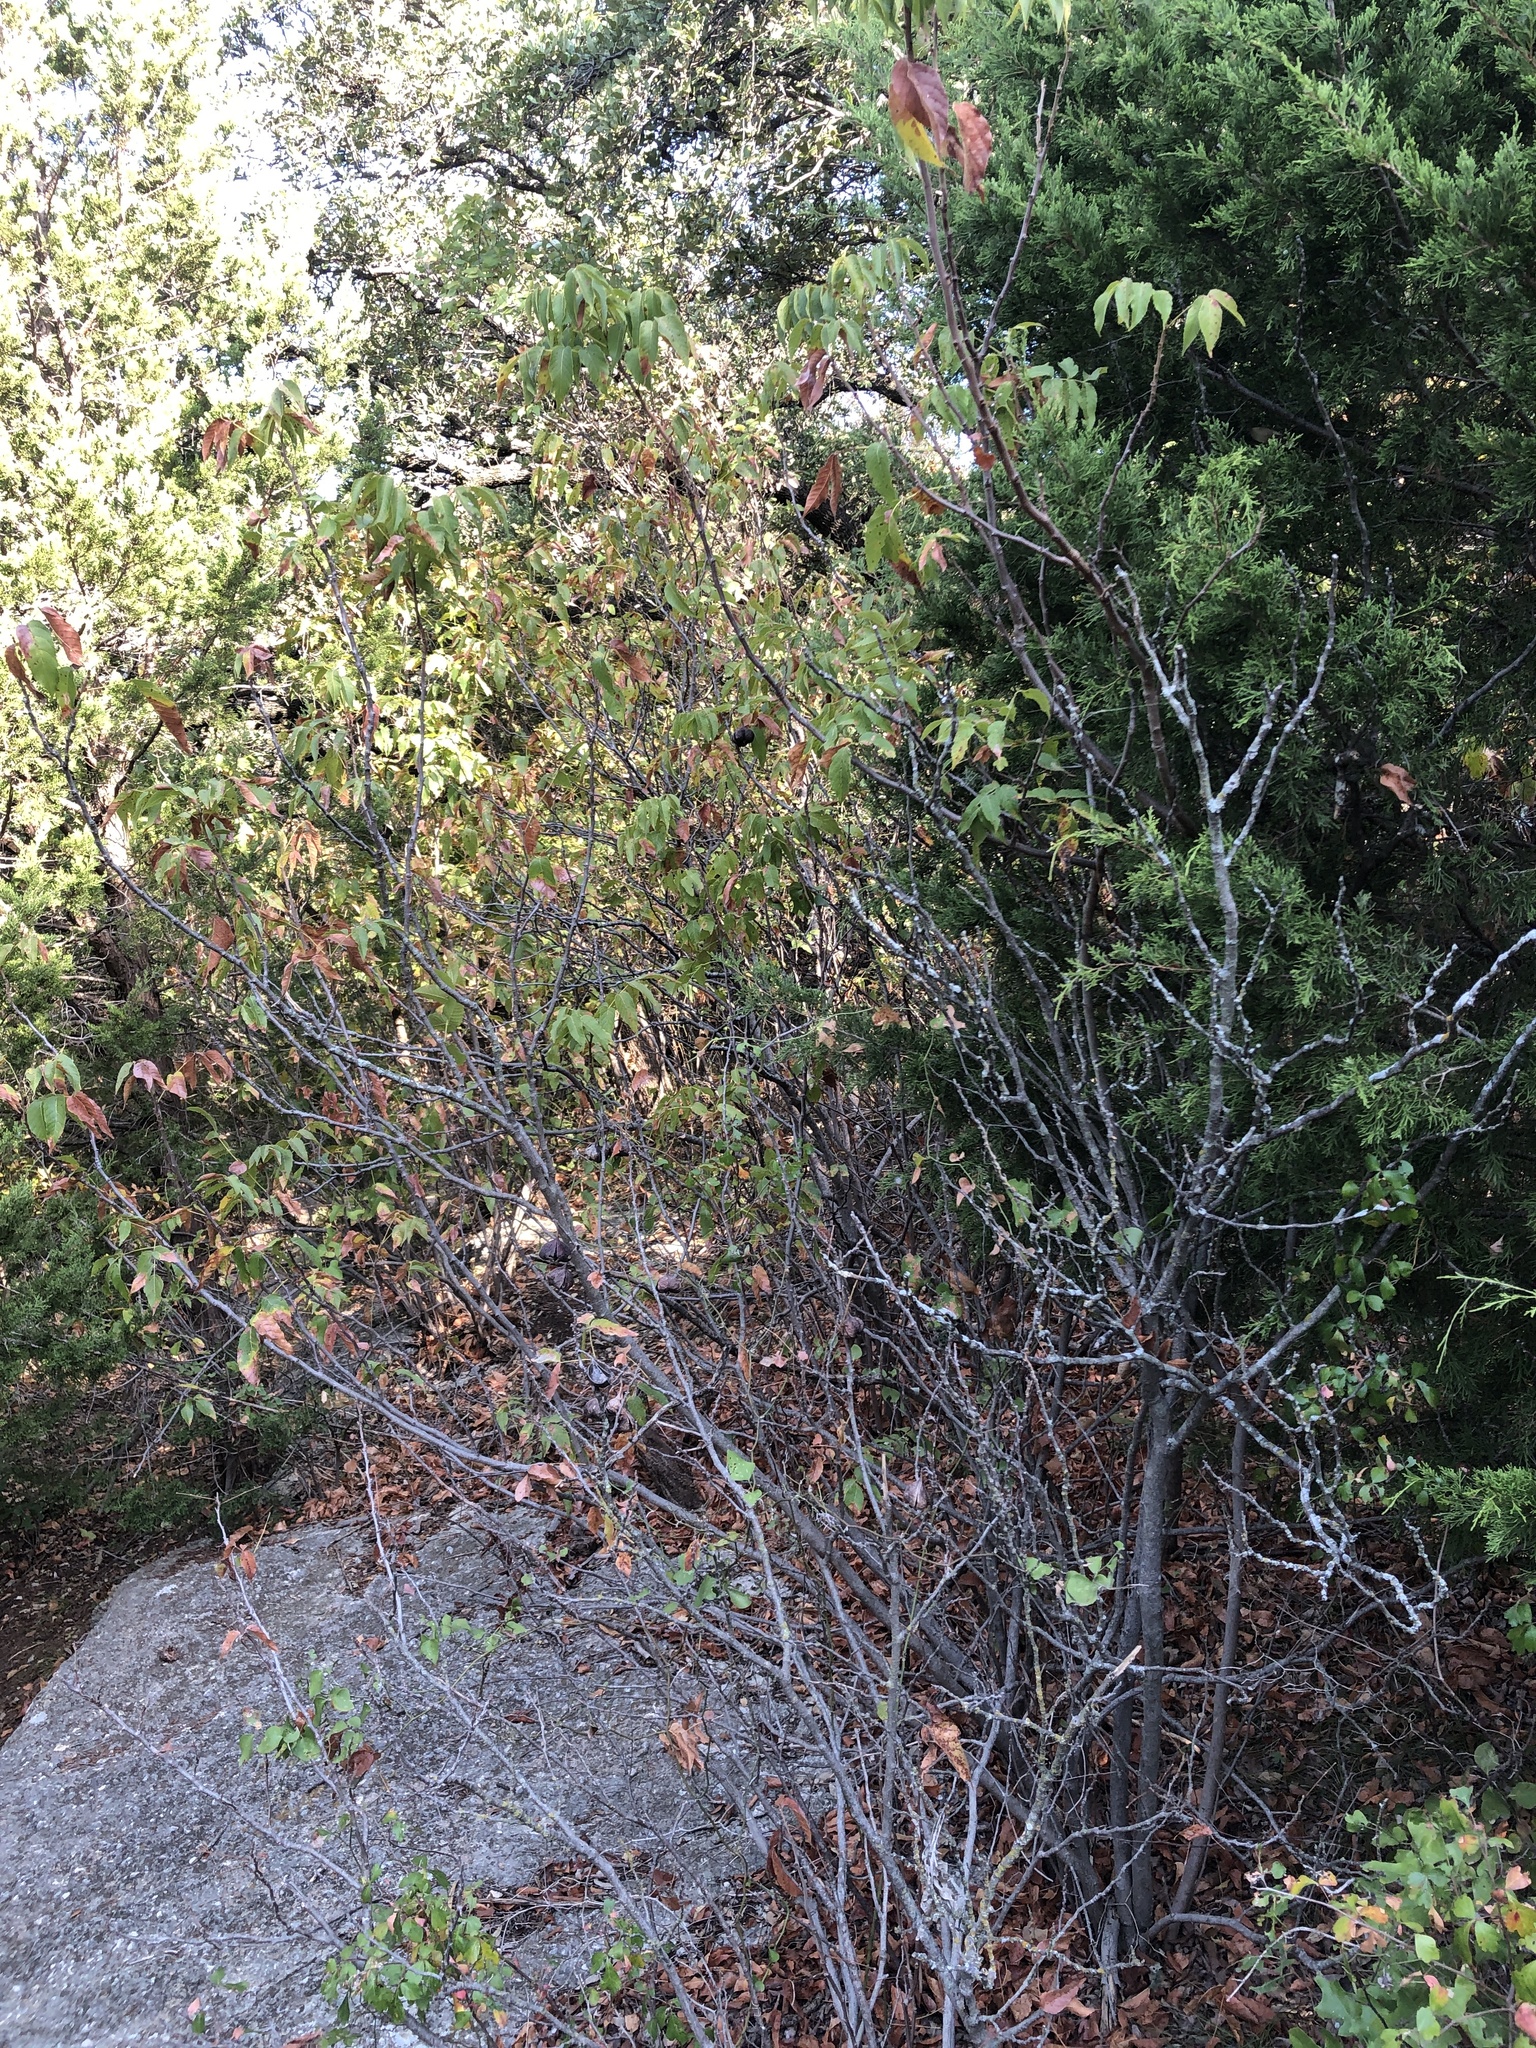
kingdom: Plantae
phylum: Tracheophyta
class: Magnoliopsida
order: Sapindales
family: Sapindaceae
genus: Ungnadia
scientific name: Ungnadia speciosa
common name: Texas-buckeye
